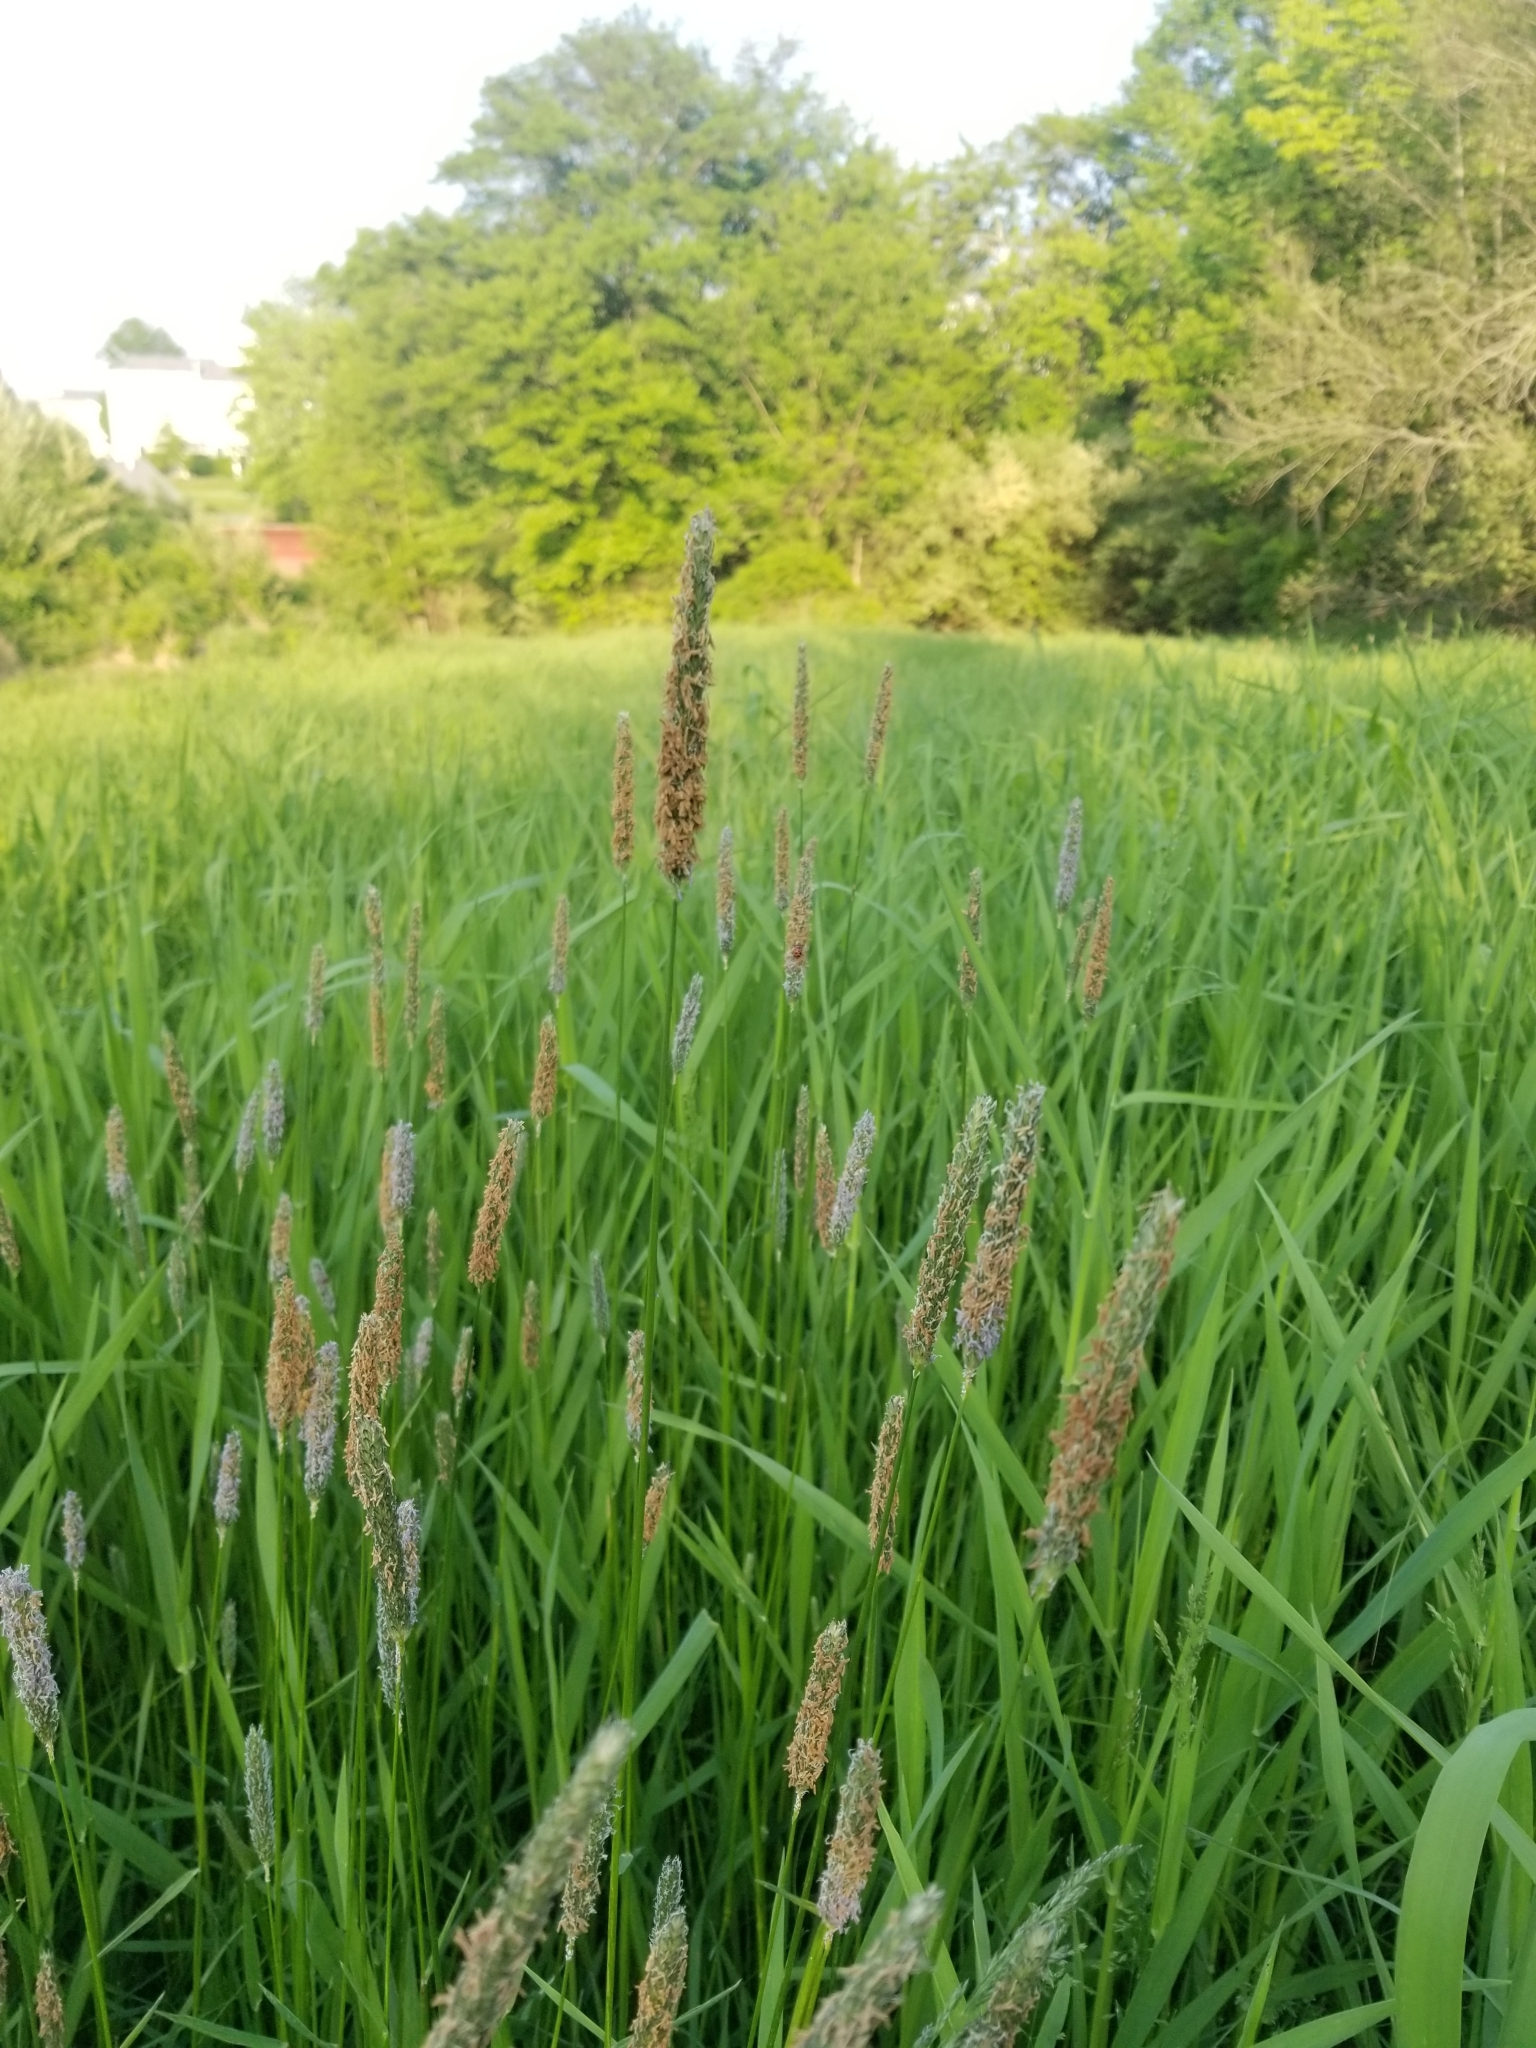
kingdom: Plantae
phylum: Tracheophyta
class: Liliopsida
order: Poales
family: Poaceae
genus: Phleum
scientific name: Phleum pratense
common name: Timothy grass
